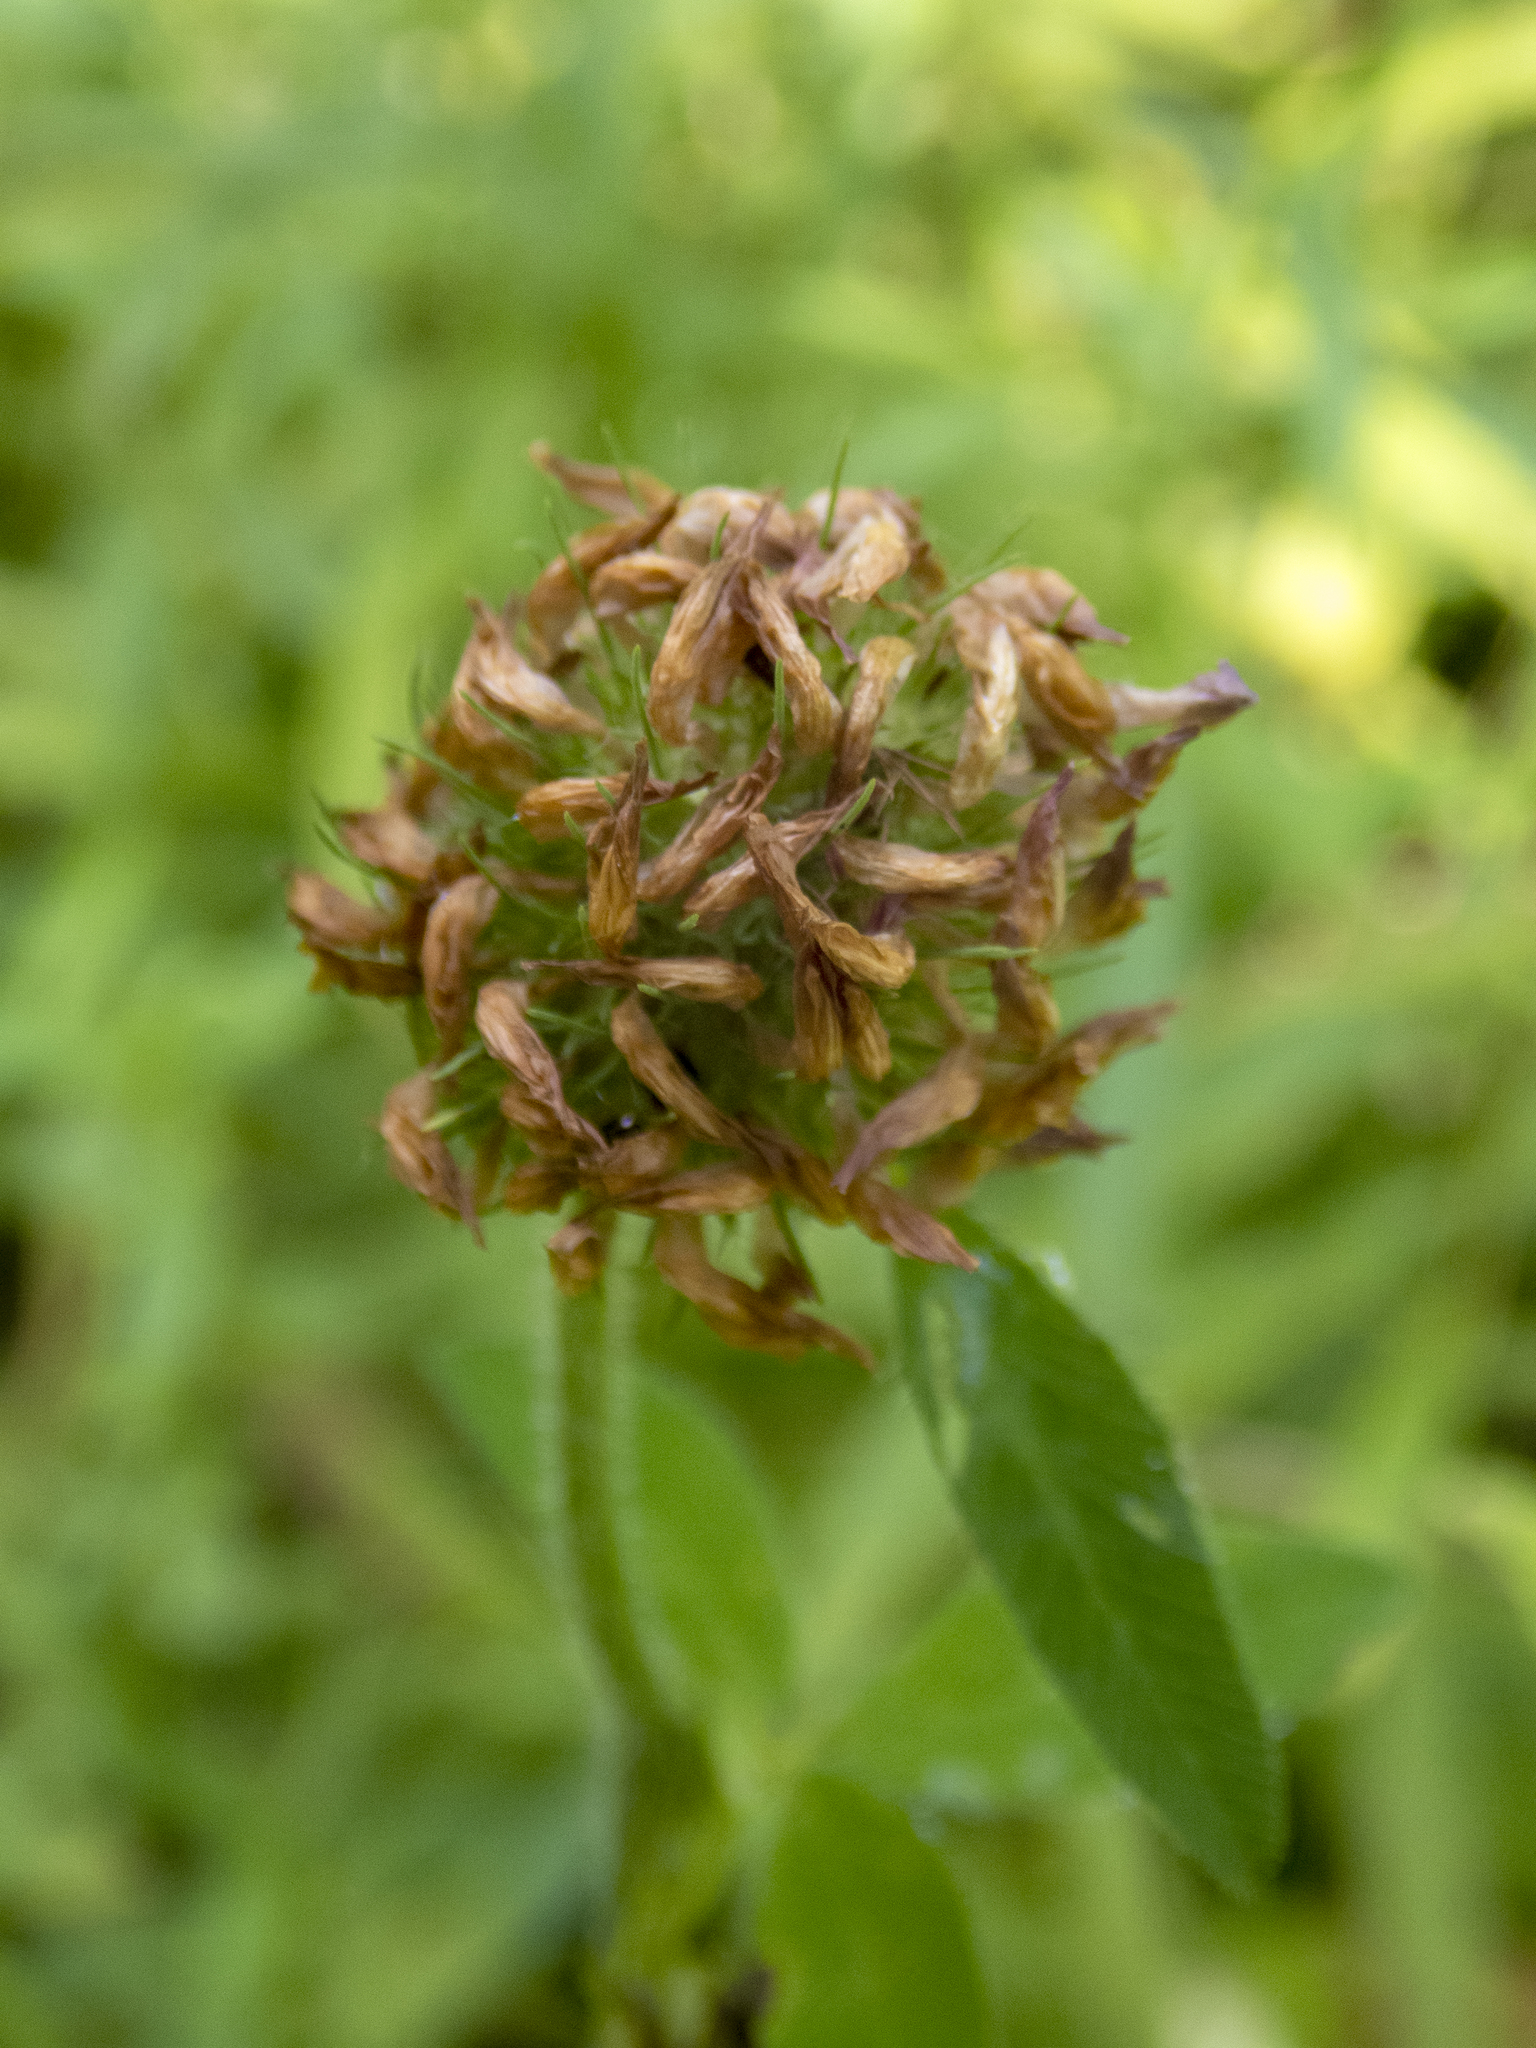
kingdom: Plantae
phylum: Tracheophyta
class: Magnoliopsida
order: Fabales
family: Fabaceae
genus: Trifolium
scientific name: Trifolium pratense
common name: Red clover
